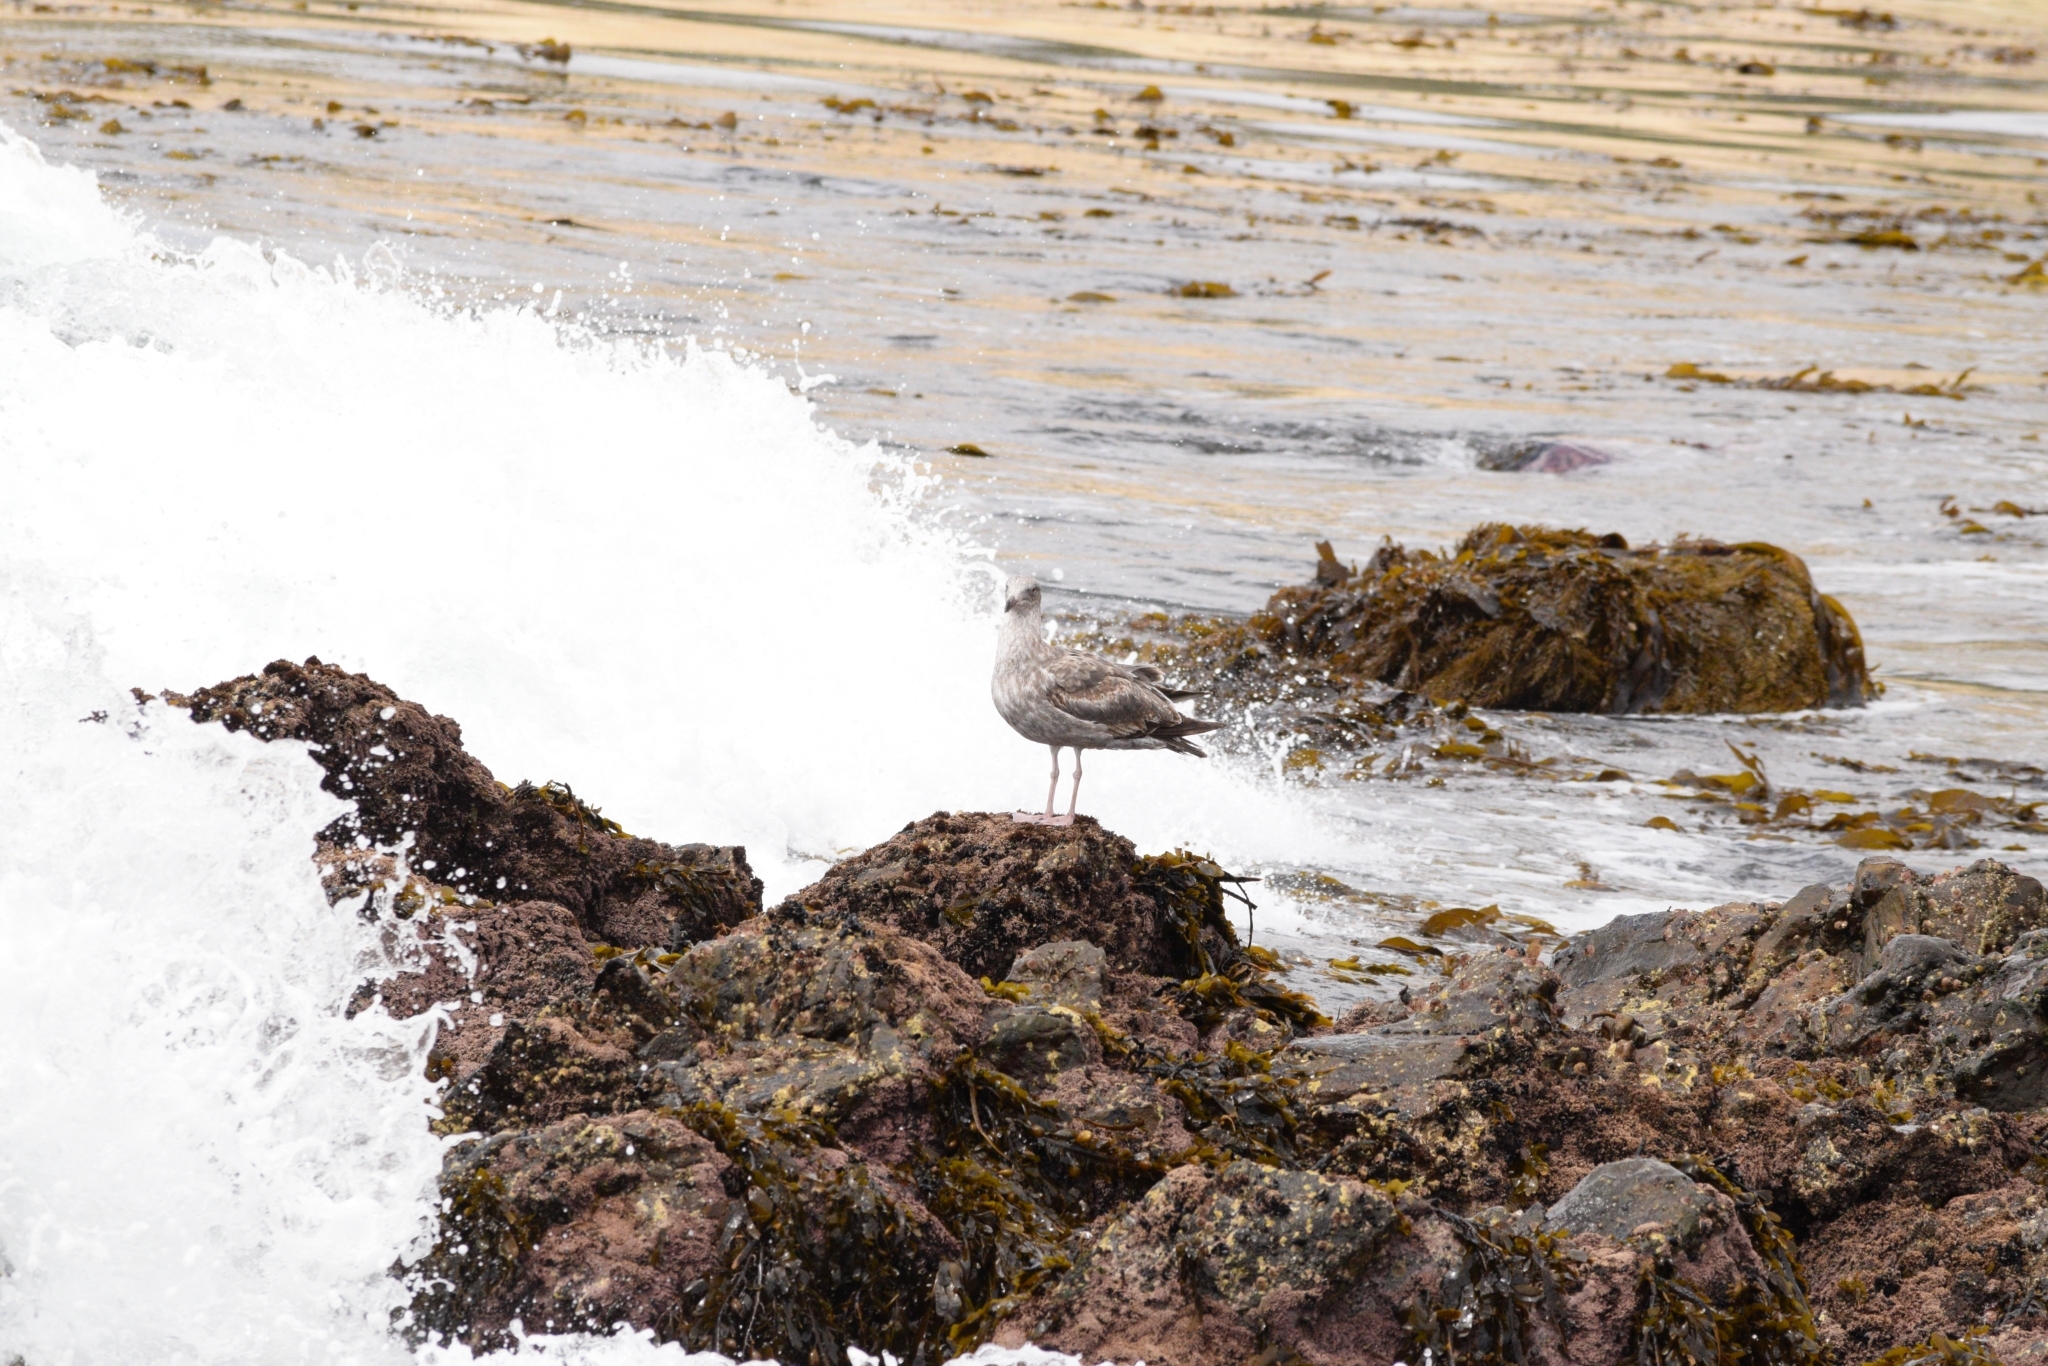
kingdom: Animalia
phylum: Chordata
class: Aves
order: Charadriiformes
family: Laridae
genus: Larus
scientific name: Larus occidentalis
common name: Western gull
